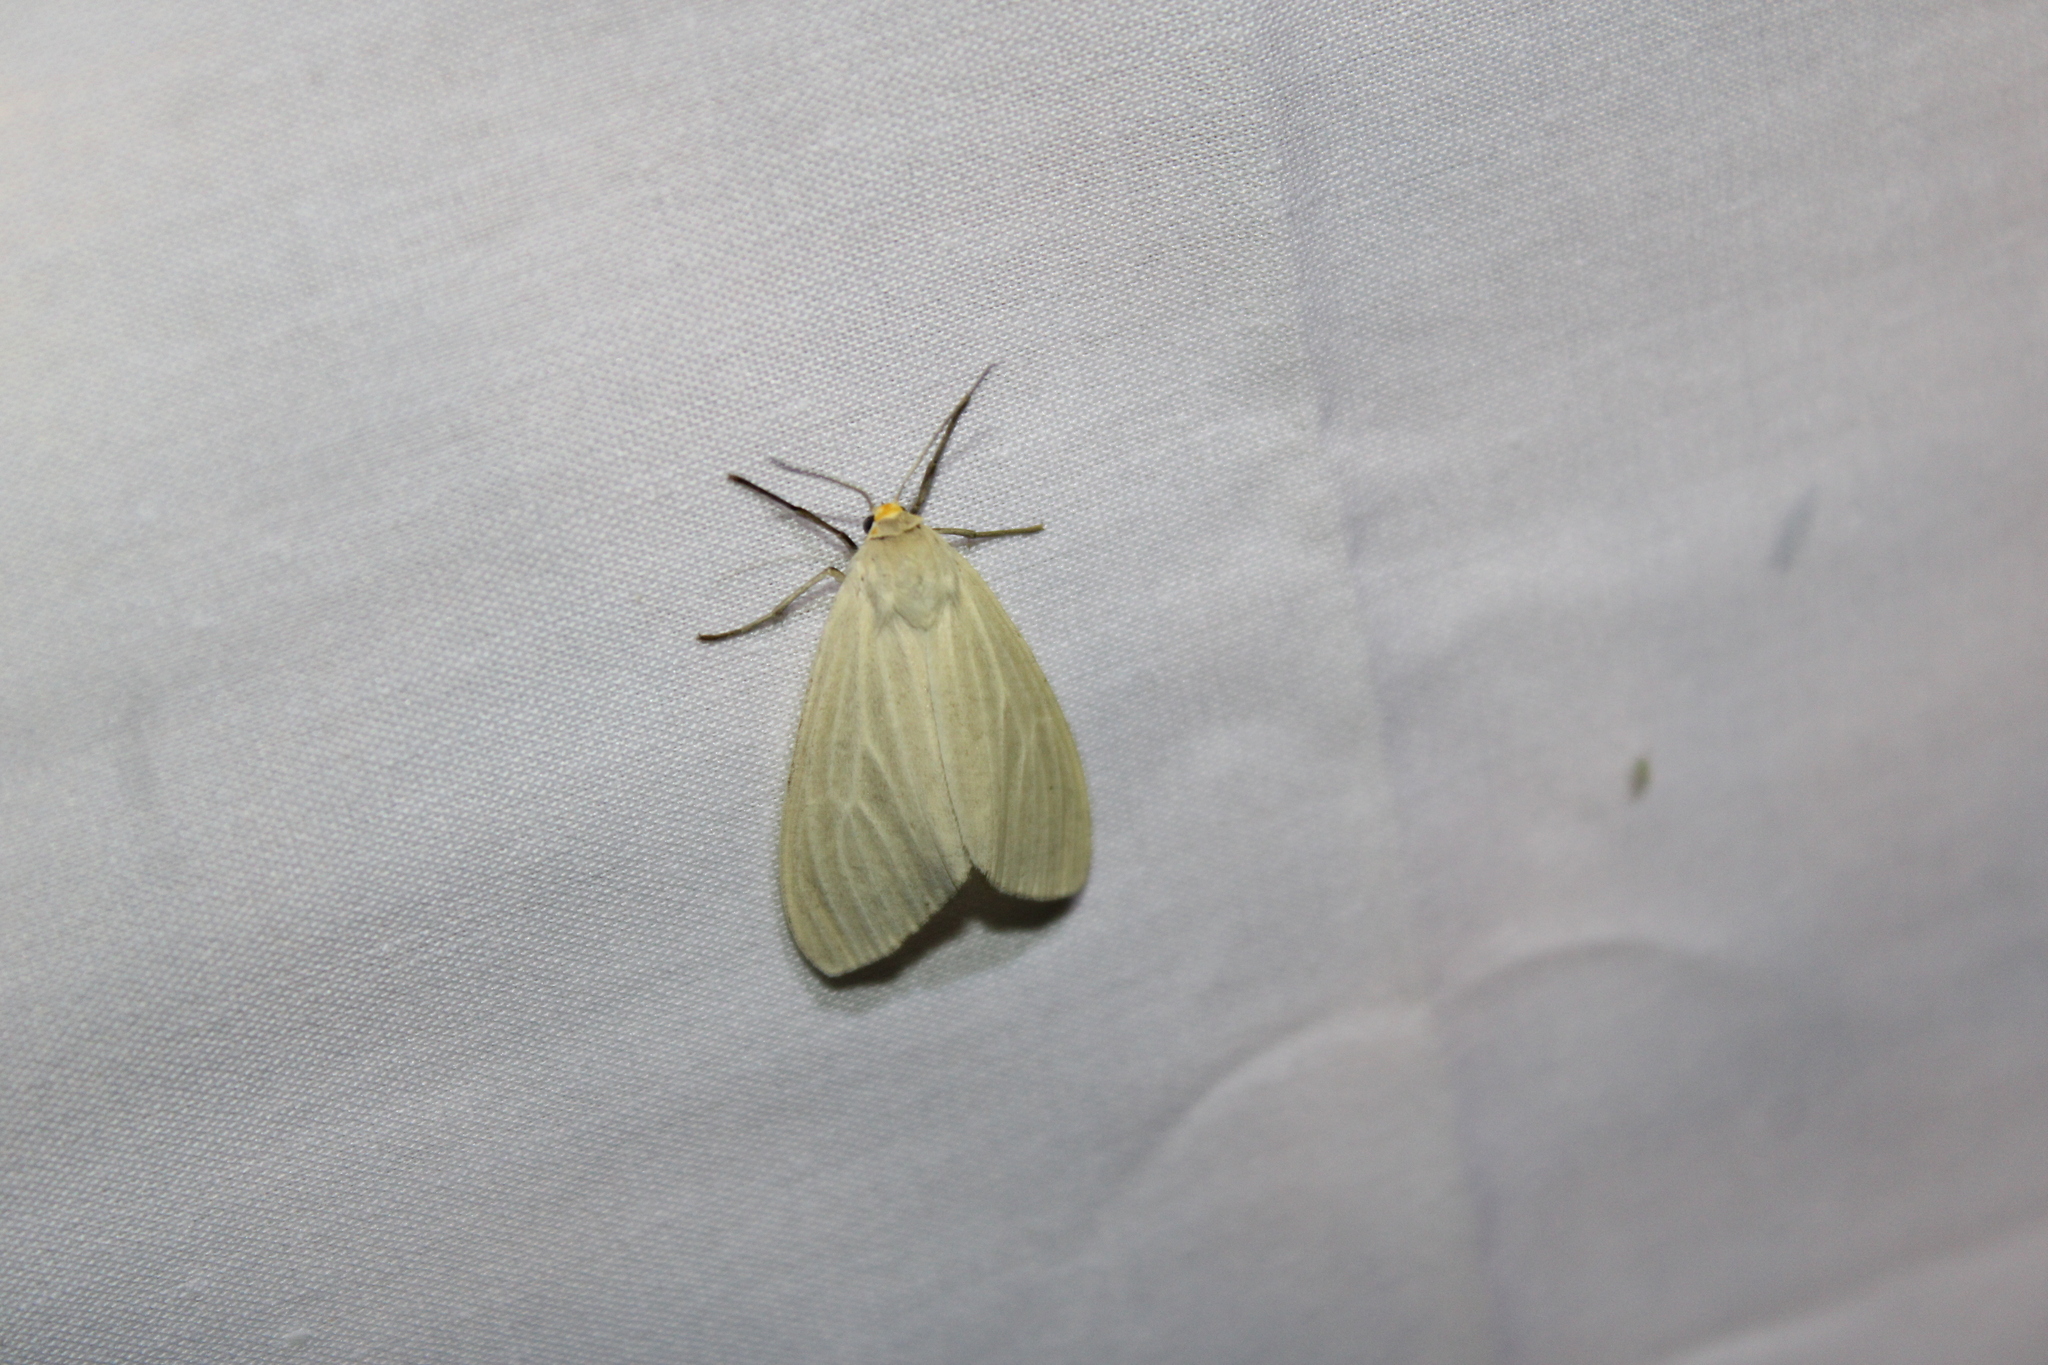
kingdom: Animalia
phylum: Arthropoda
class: Insecta
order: Lepidoptera
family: Erebidae
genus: Cycnia
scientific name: Cycnia oregonensis
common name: Oregon cycnia moth
